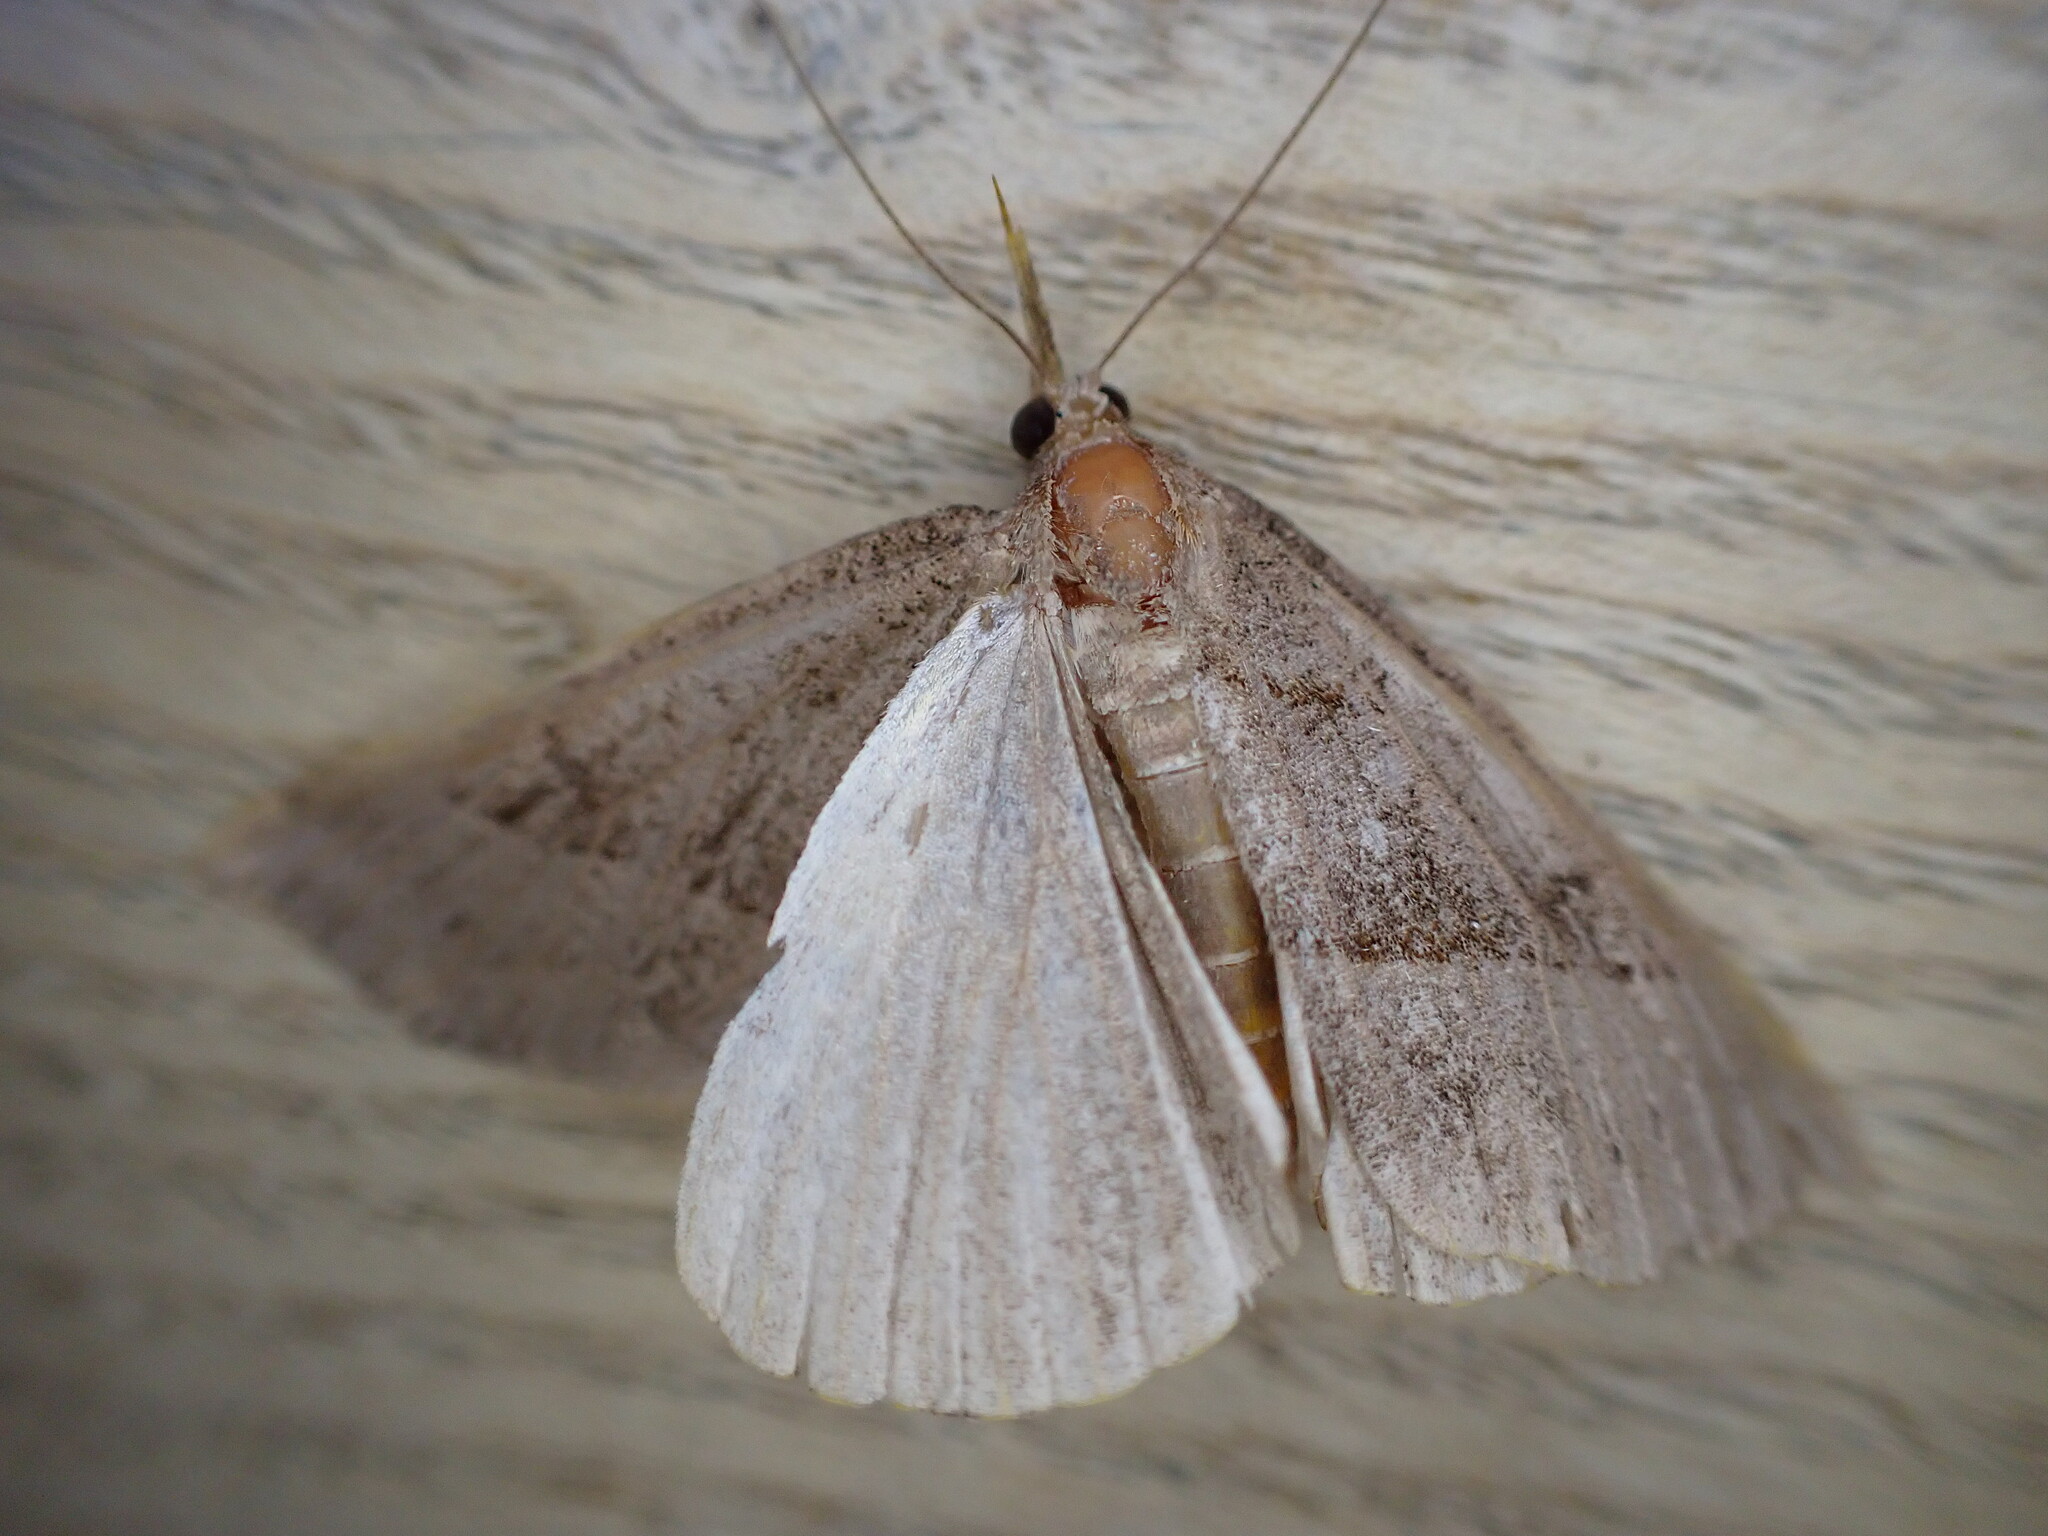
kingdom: Animalia
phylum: Arthropoda
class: Insecta
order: Lepidoptera
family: Erebidae
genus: Hypena
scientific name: Hypena proboscidalis
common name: Snout
